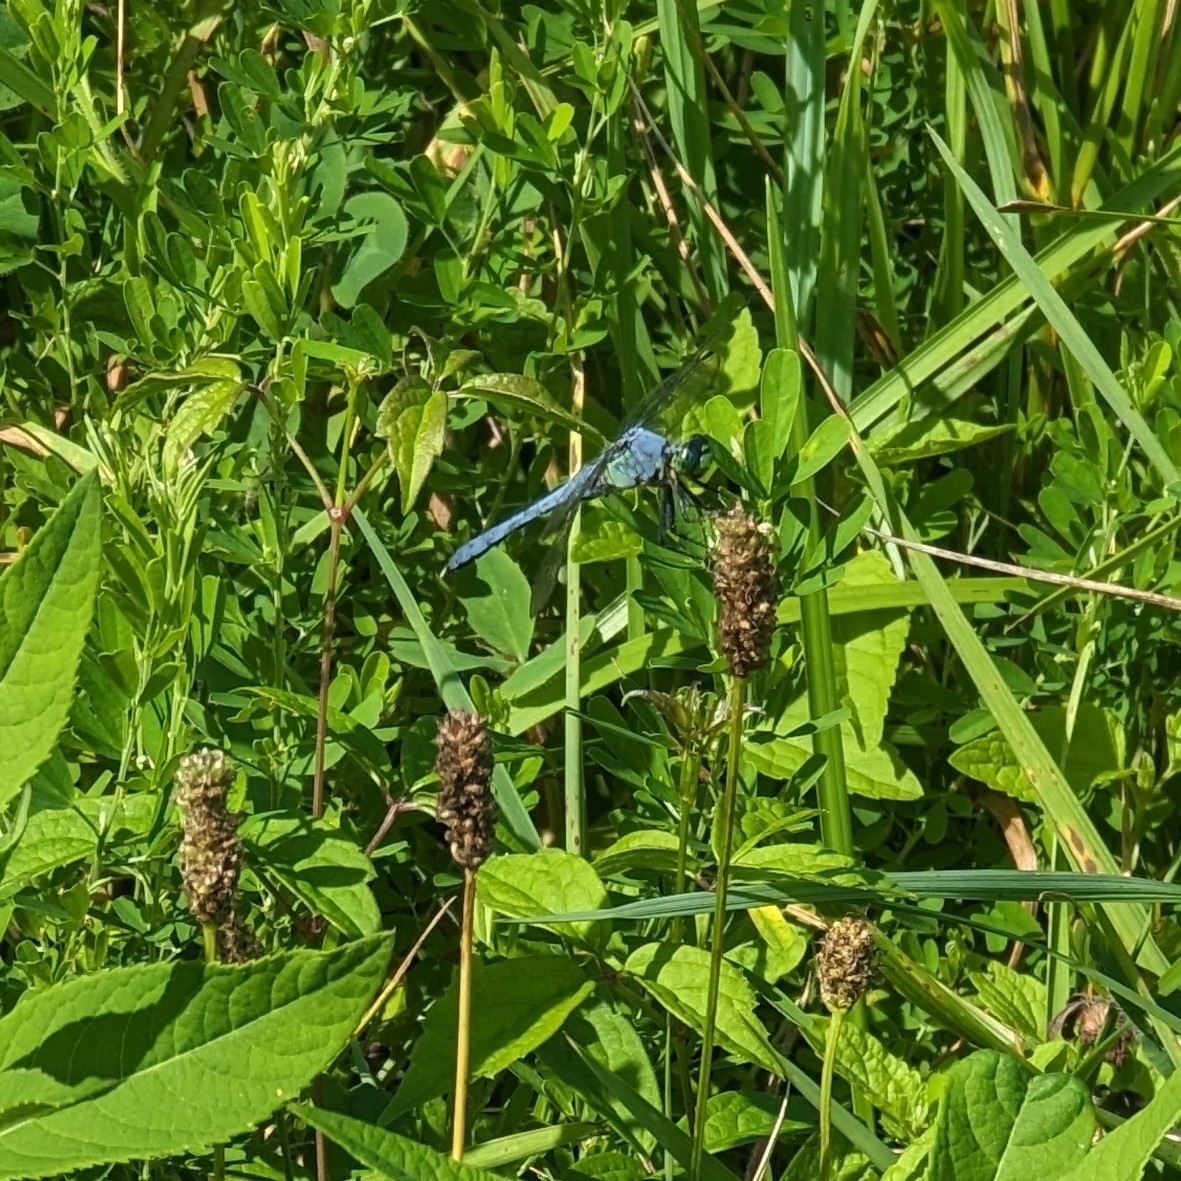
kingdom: Animalia
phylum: Arthropoda
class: Insecta
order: Odonata
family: Libellulidae
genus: Erythemis
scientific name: Erythemis simplicicollis
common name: Eastern pondhawk
